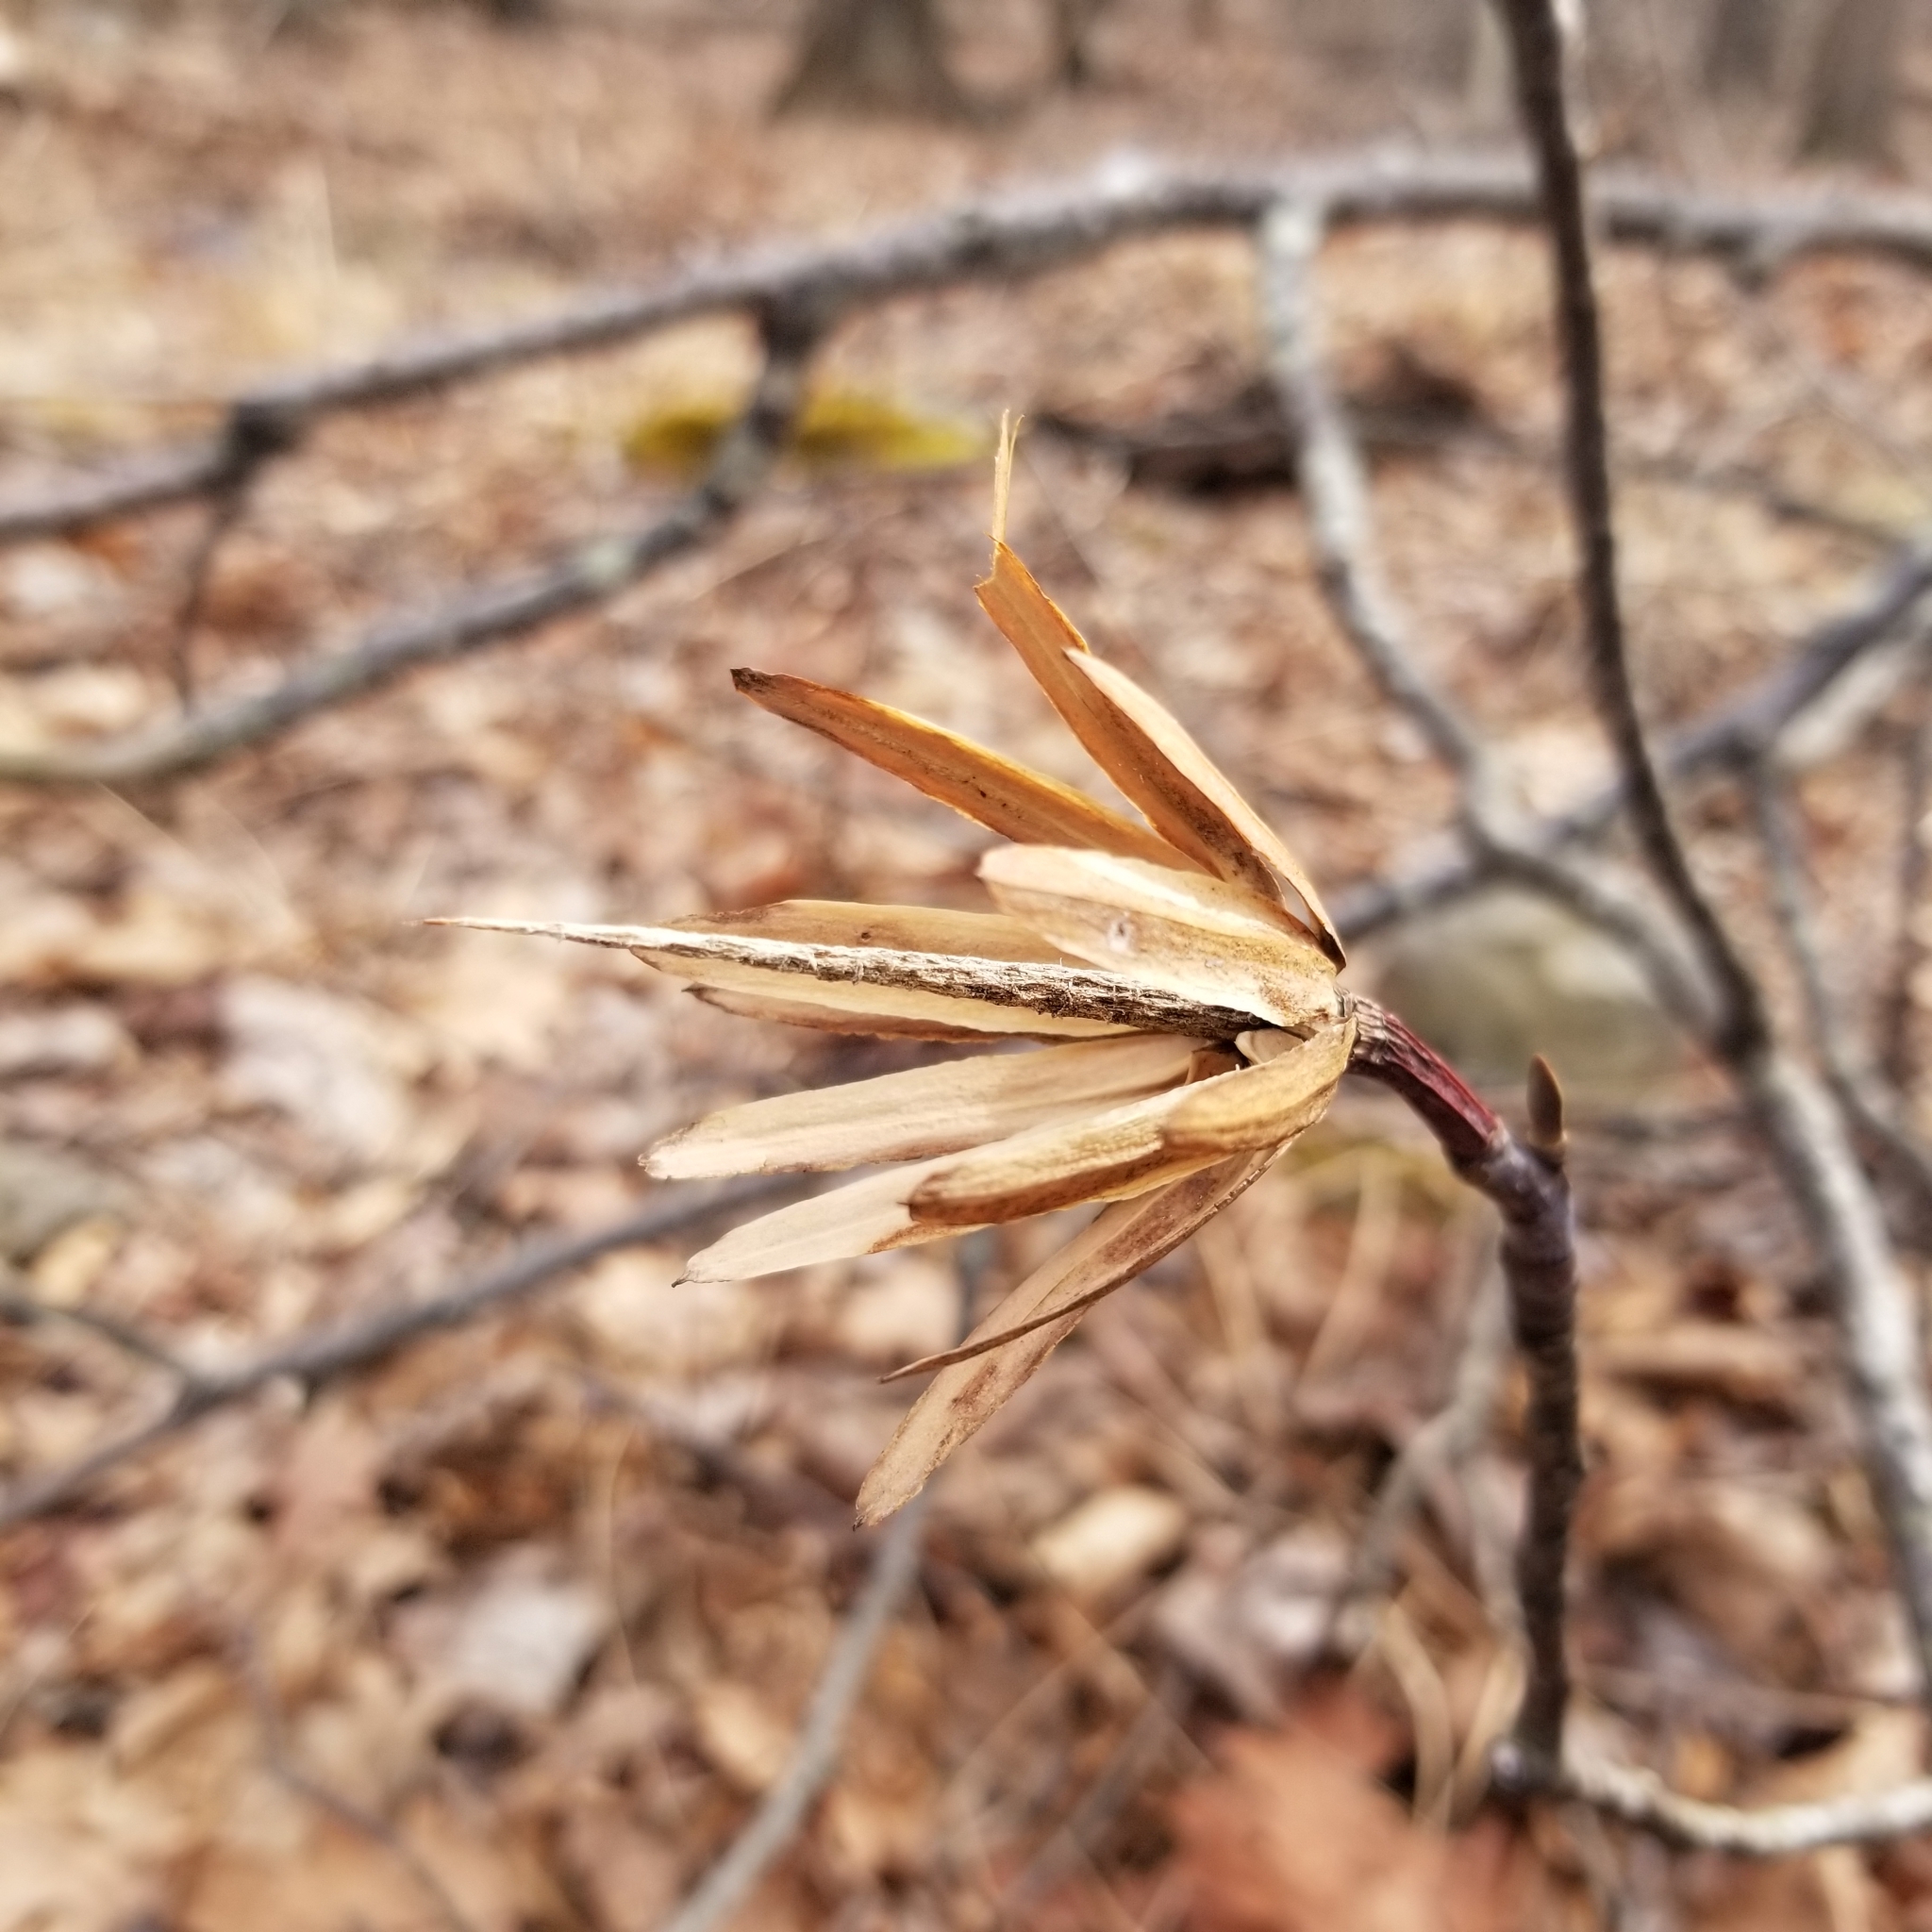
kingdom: Plantae
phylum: Tracheophyta
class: Magnoliopsida
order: Magnoliales
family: Magnoliaceae
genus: Liriodendron
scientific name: Liriodendron tulipifera
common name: Tulip tree
